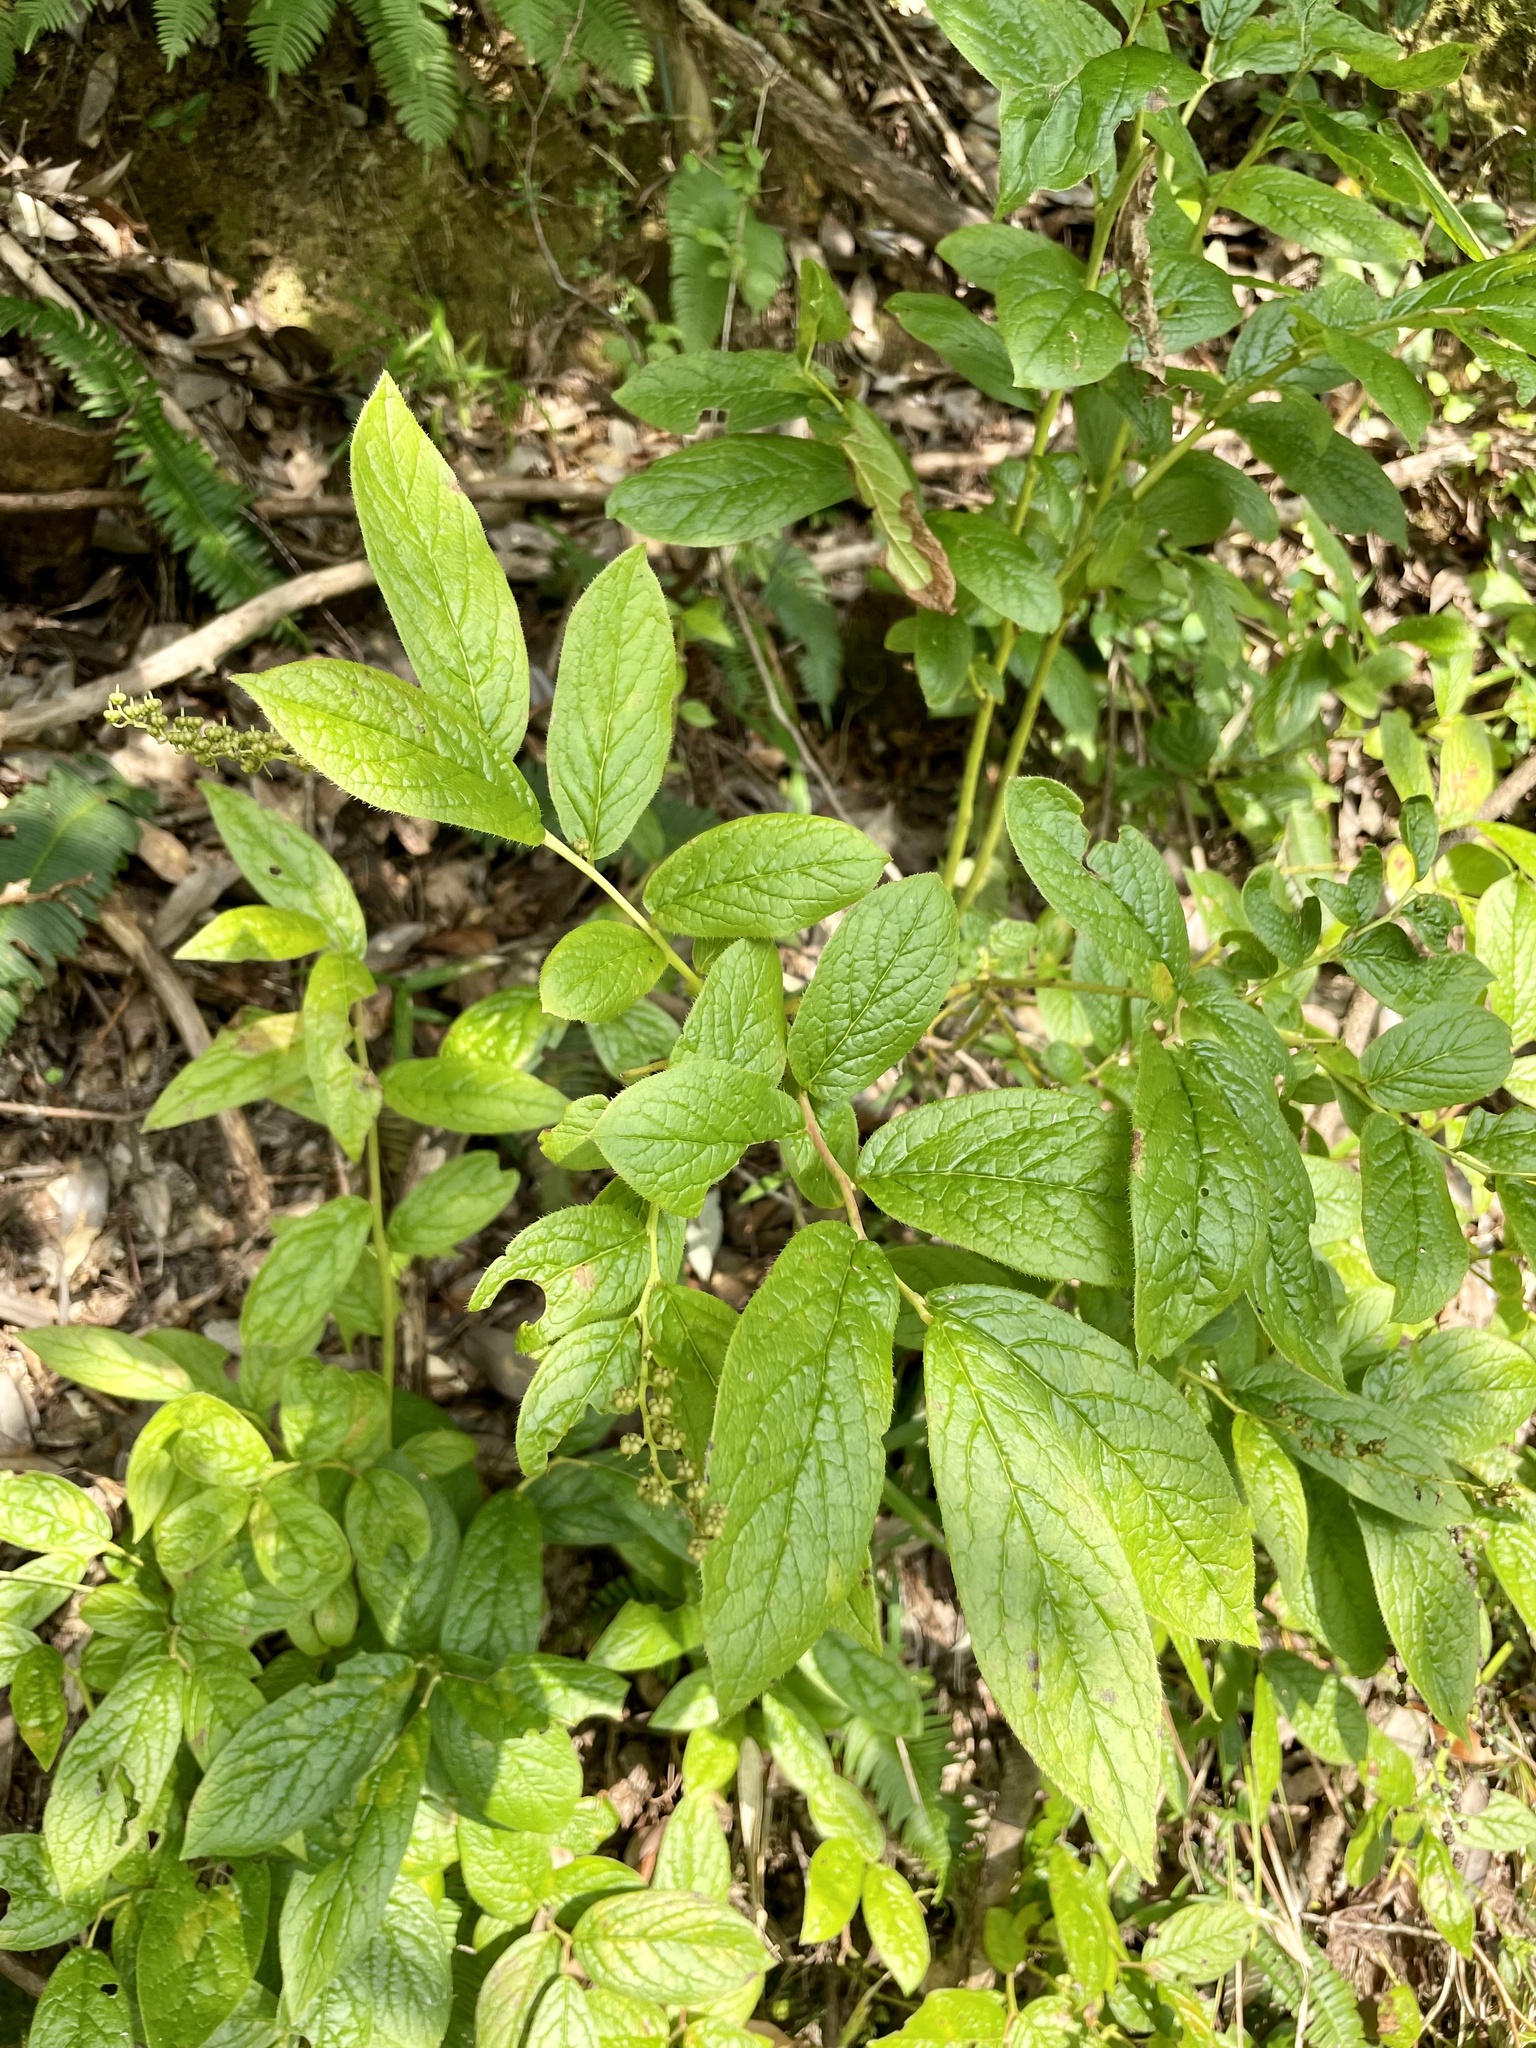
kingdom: Plantae
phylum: Tracheophyta
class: Magnoliopsida
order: Ericales
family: Ericaceae
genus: Leucothoe
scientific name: Leucothoe grayana
